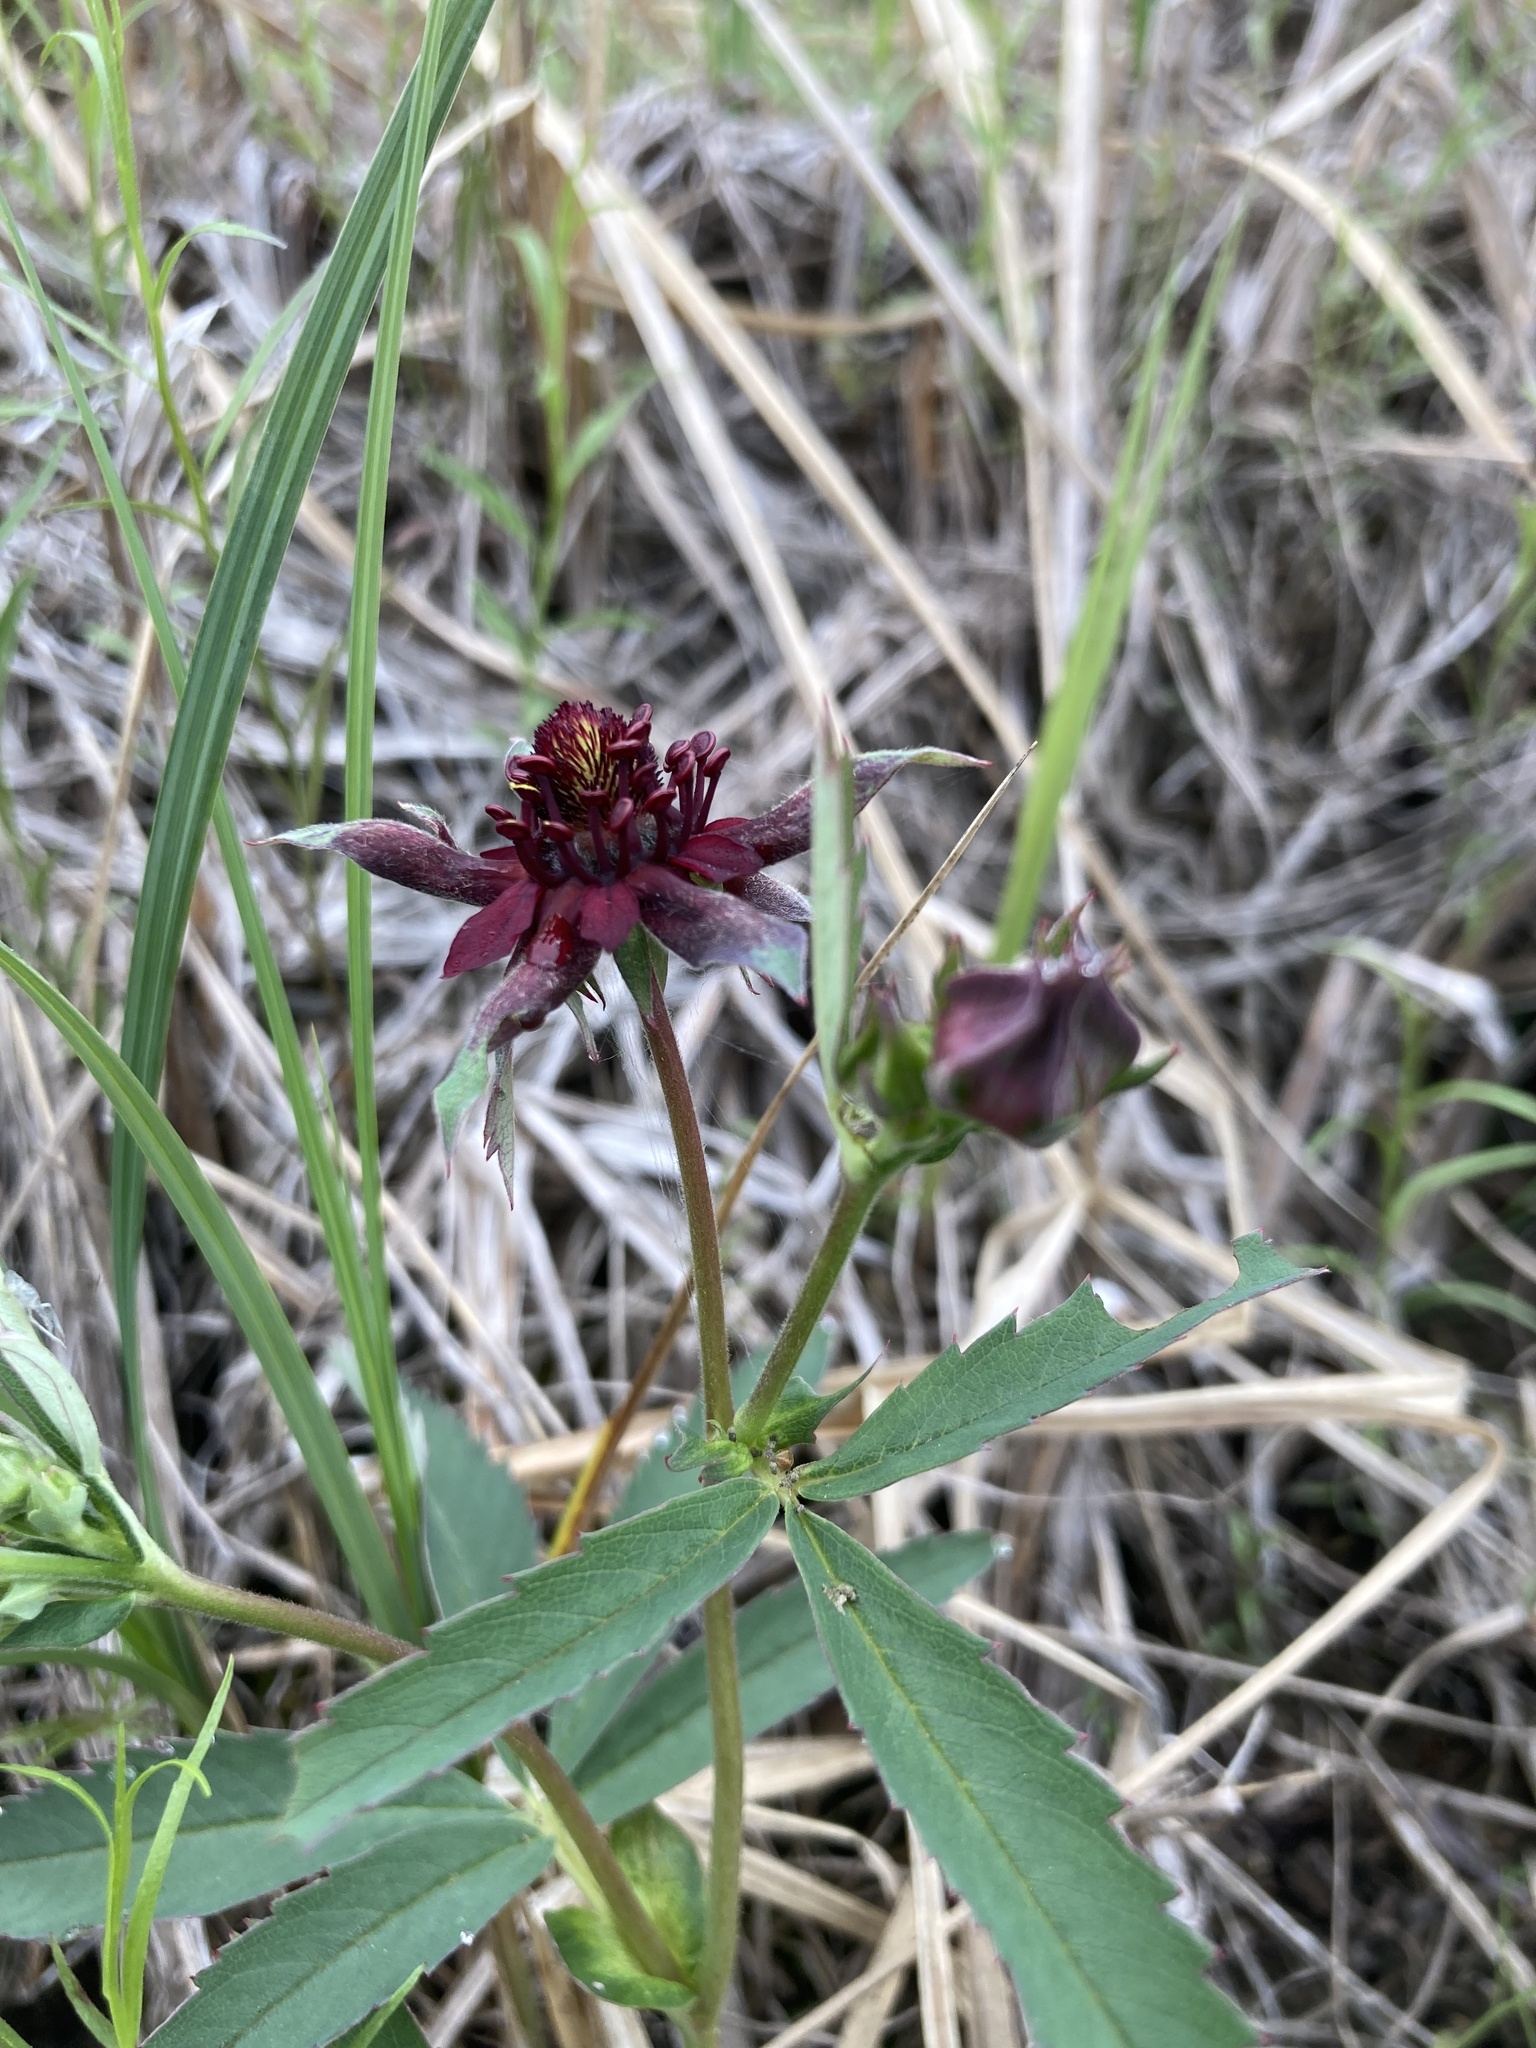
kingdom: Plantae
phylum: Tracheophyta
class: Magnoliopsida
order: Rosales
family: Rosaceae
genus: Comarum
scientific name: Comarum palustre
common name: Marsh cinquefoil
